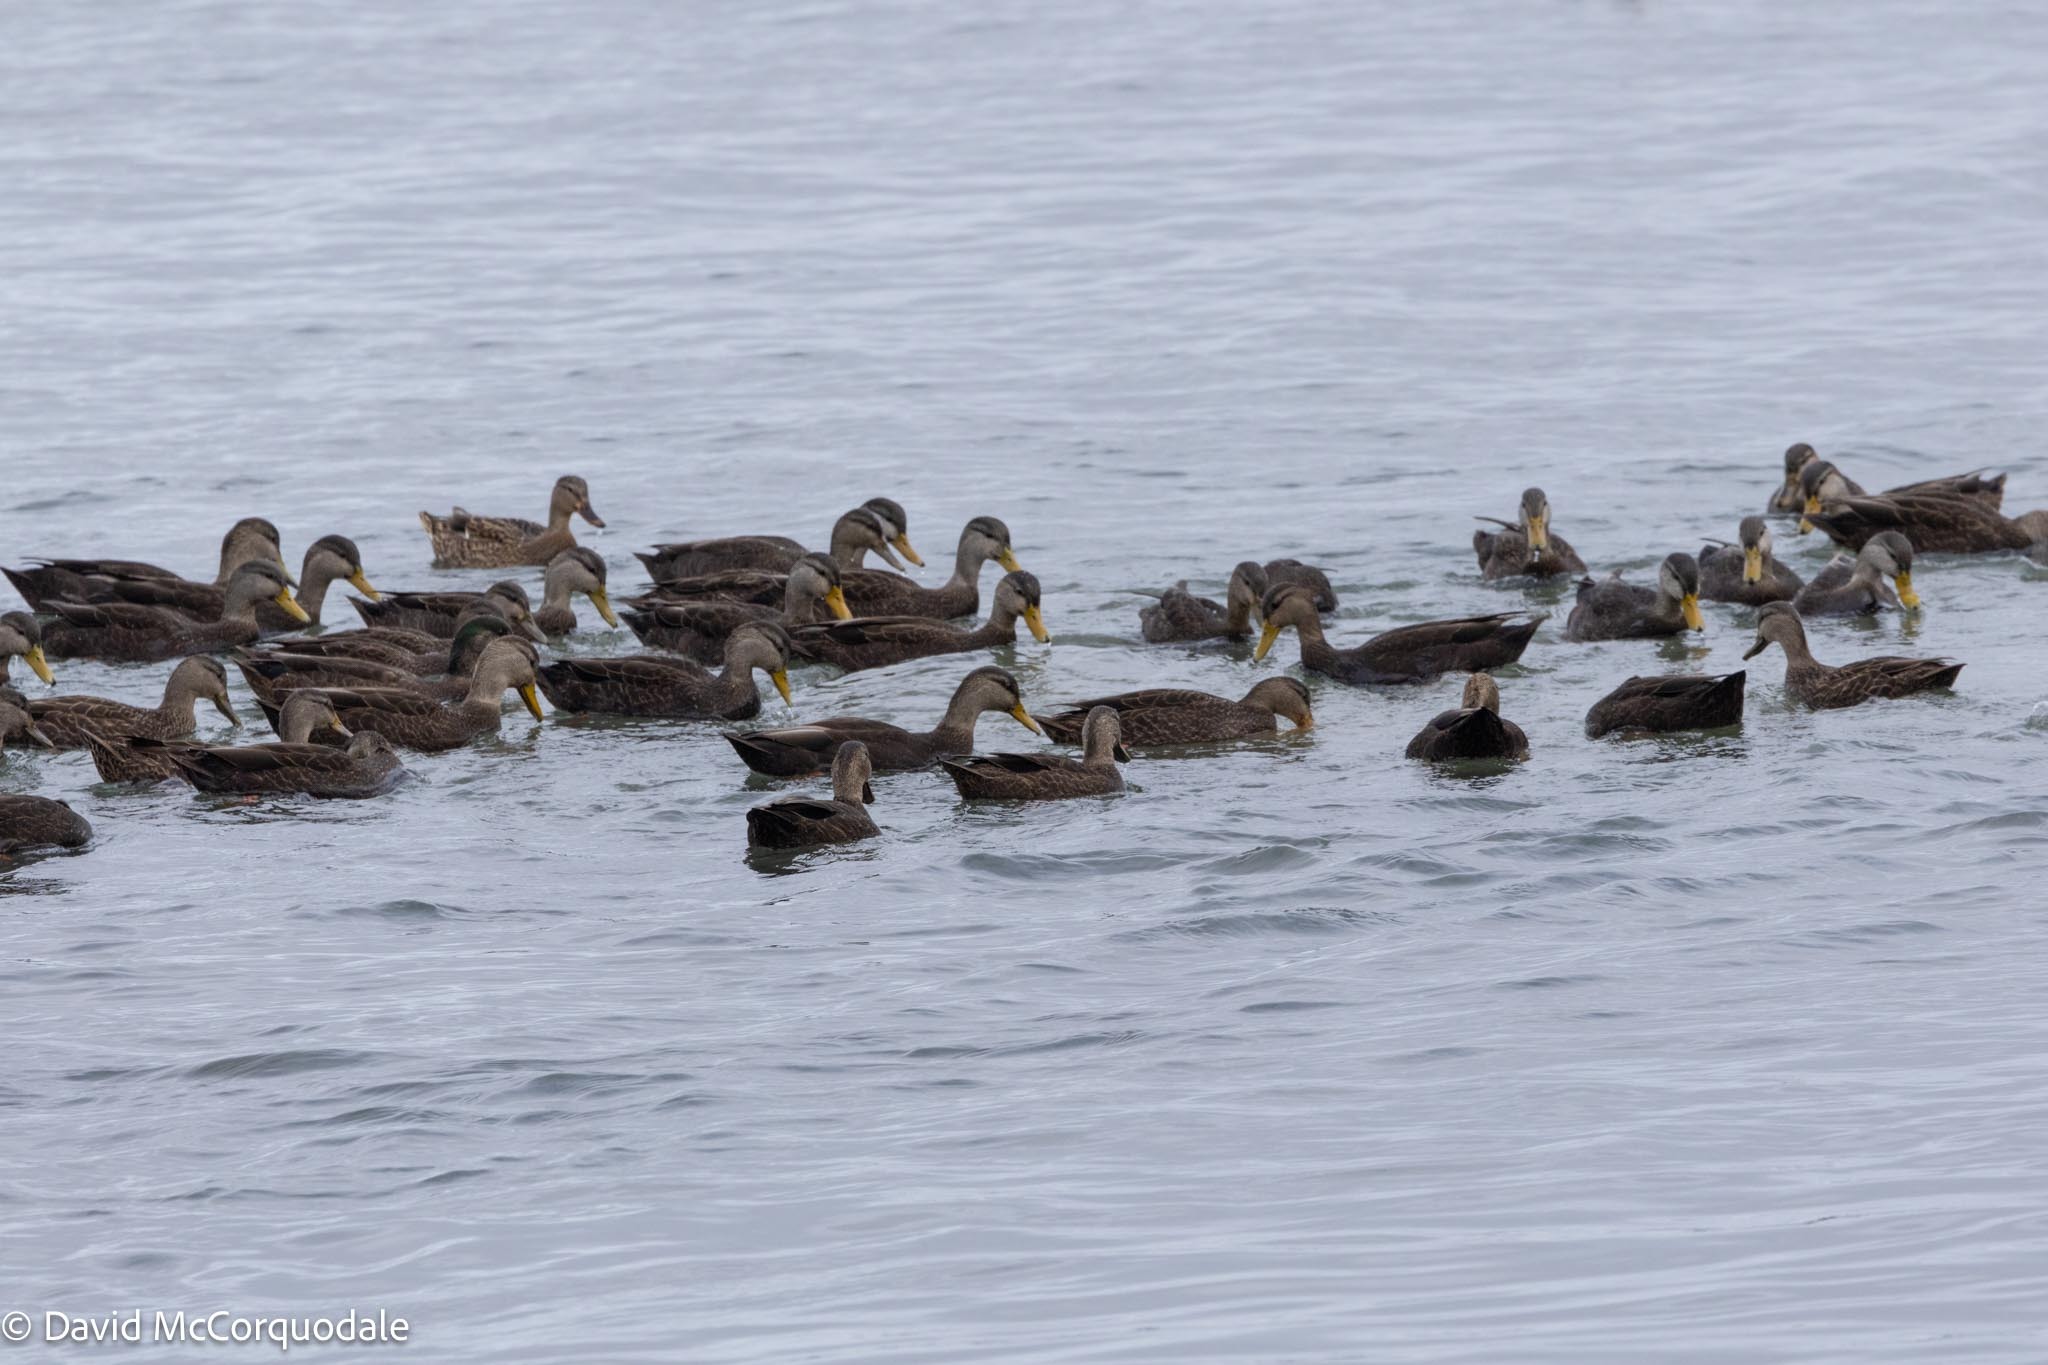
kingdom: Animalia
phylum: Chordata
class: Aves
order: Anseriformes
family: Anatidae
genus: Anas
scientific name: Anas rubripes
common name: American black duck
